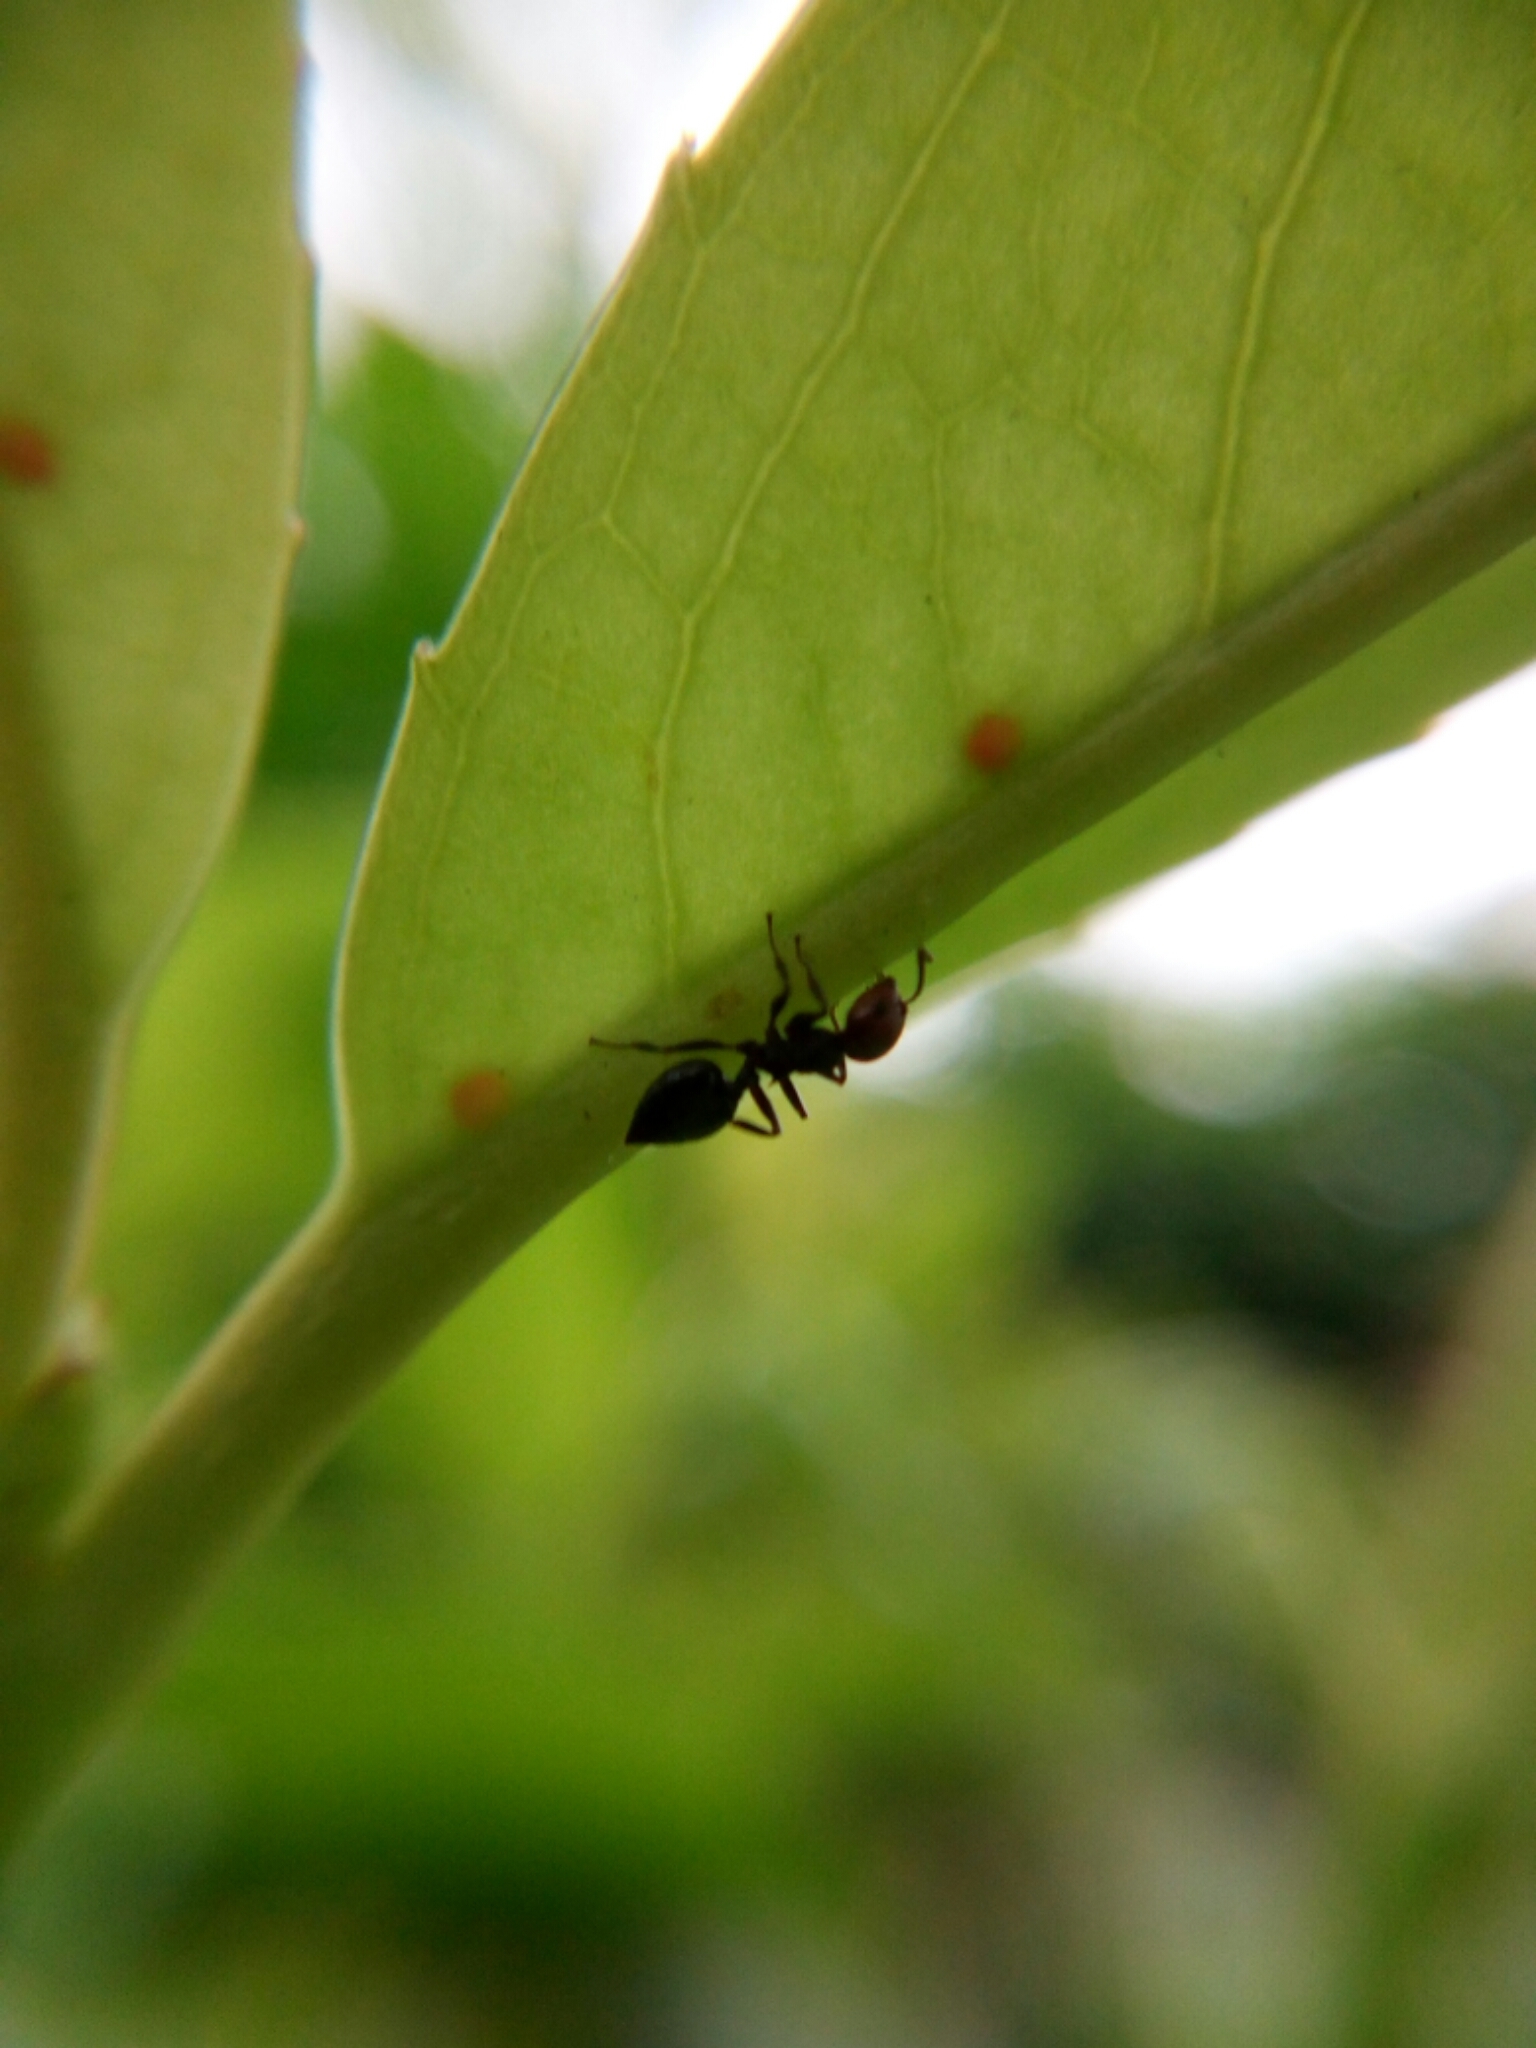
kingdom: Animalia
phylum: Arthropoda
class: Insecta
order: Hymenoptera
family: Formicidae
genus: Crematogaster
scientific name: Crematogaster scutellaris
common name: Fourmi du liège
